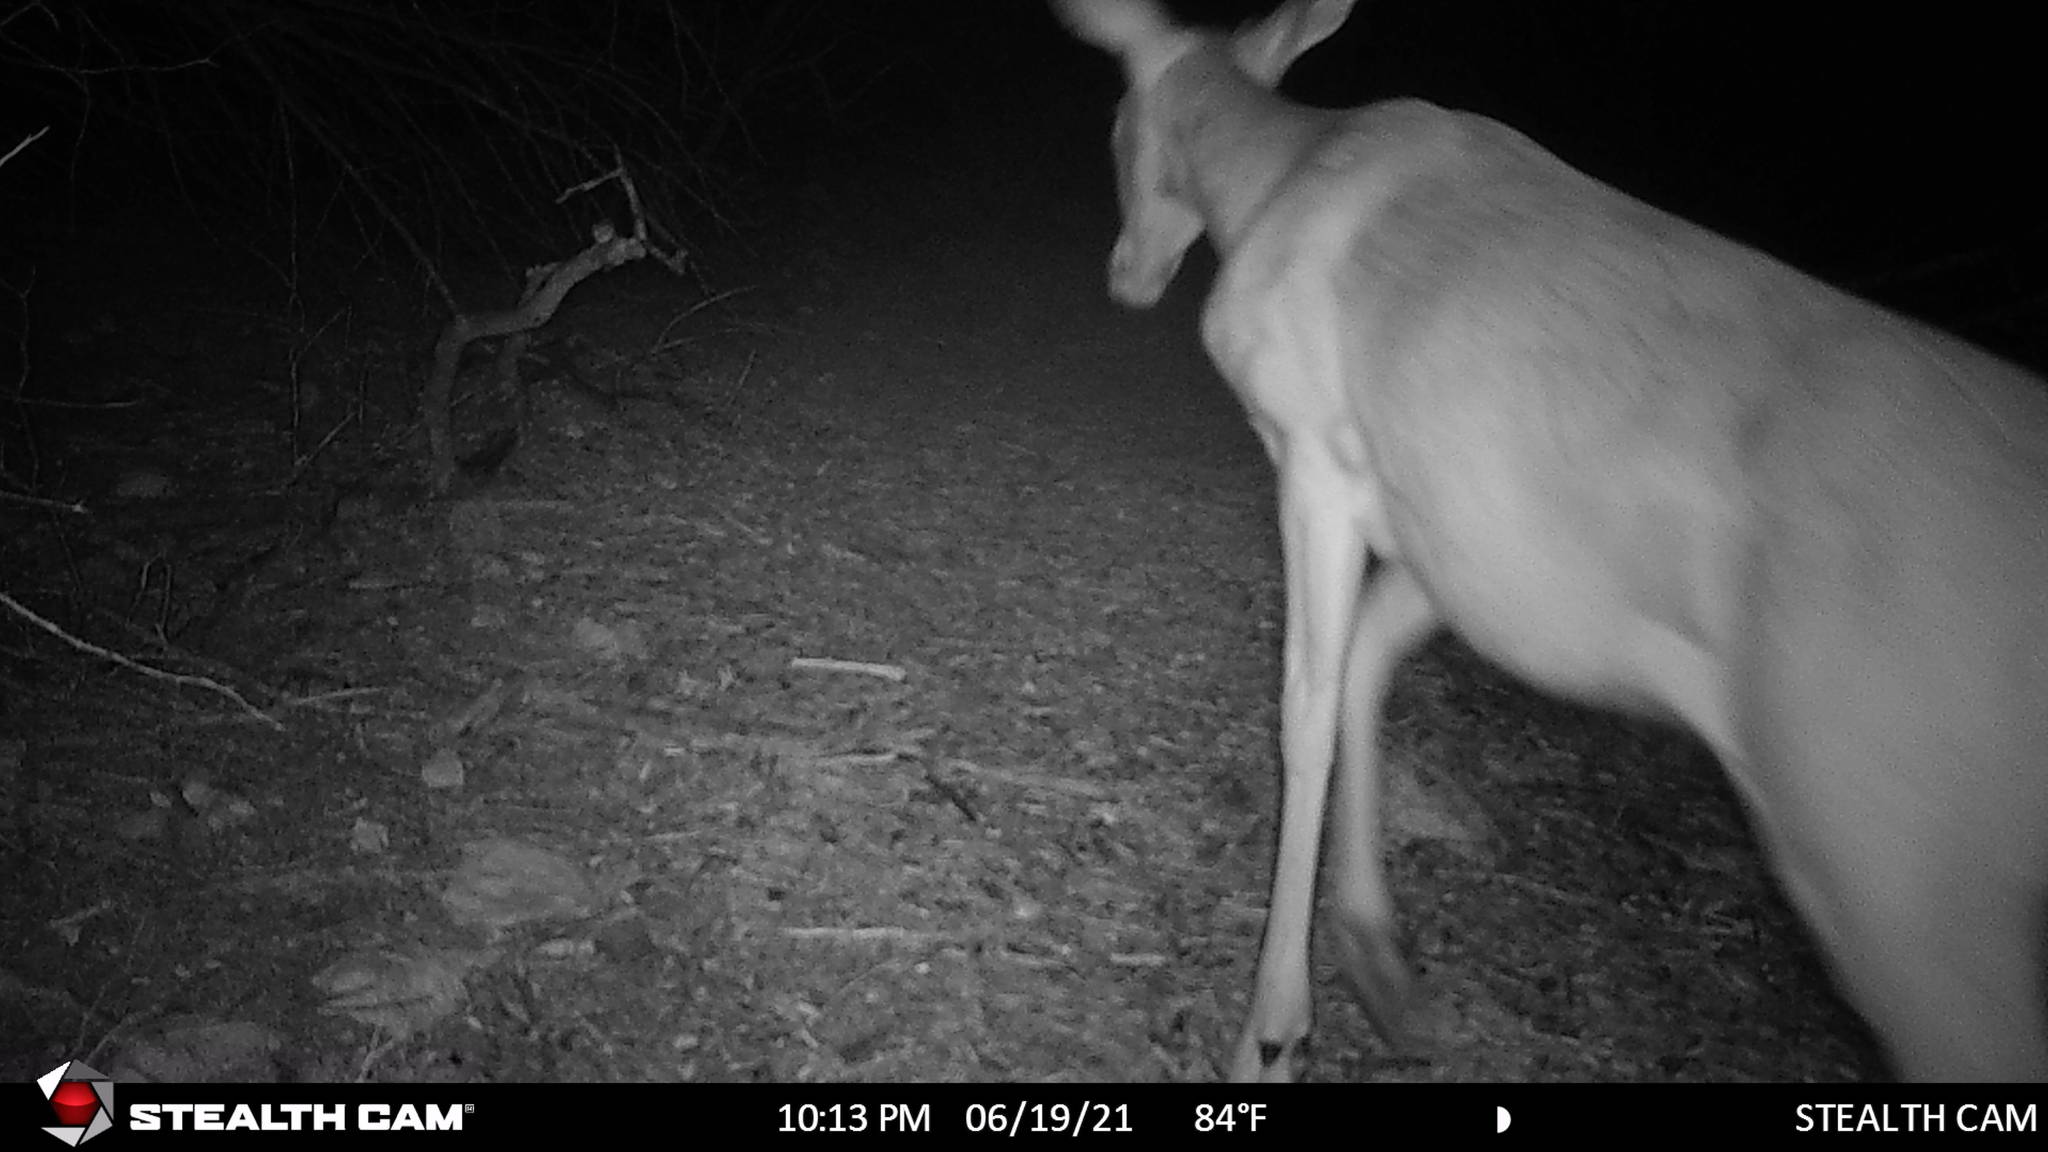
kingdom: Animalia
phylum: Chordata
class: Mammalia
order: Artiodactyla
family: Cervidae
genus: Odocoileus
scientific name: Odocoileus virginianus
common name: White-tailed deer
